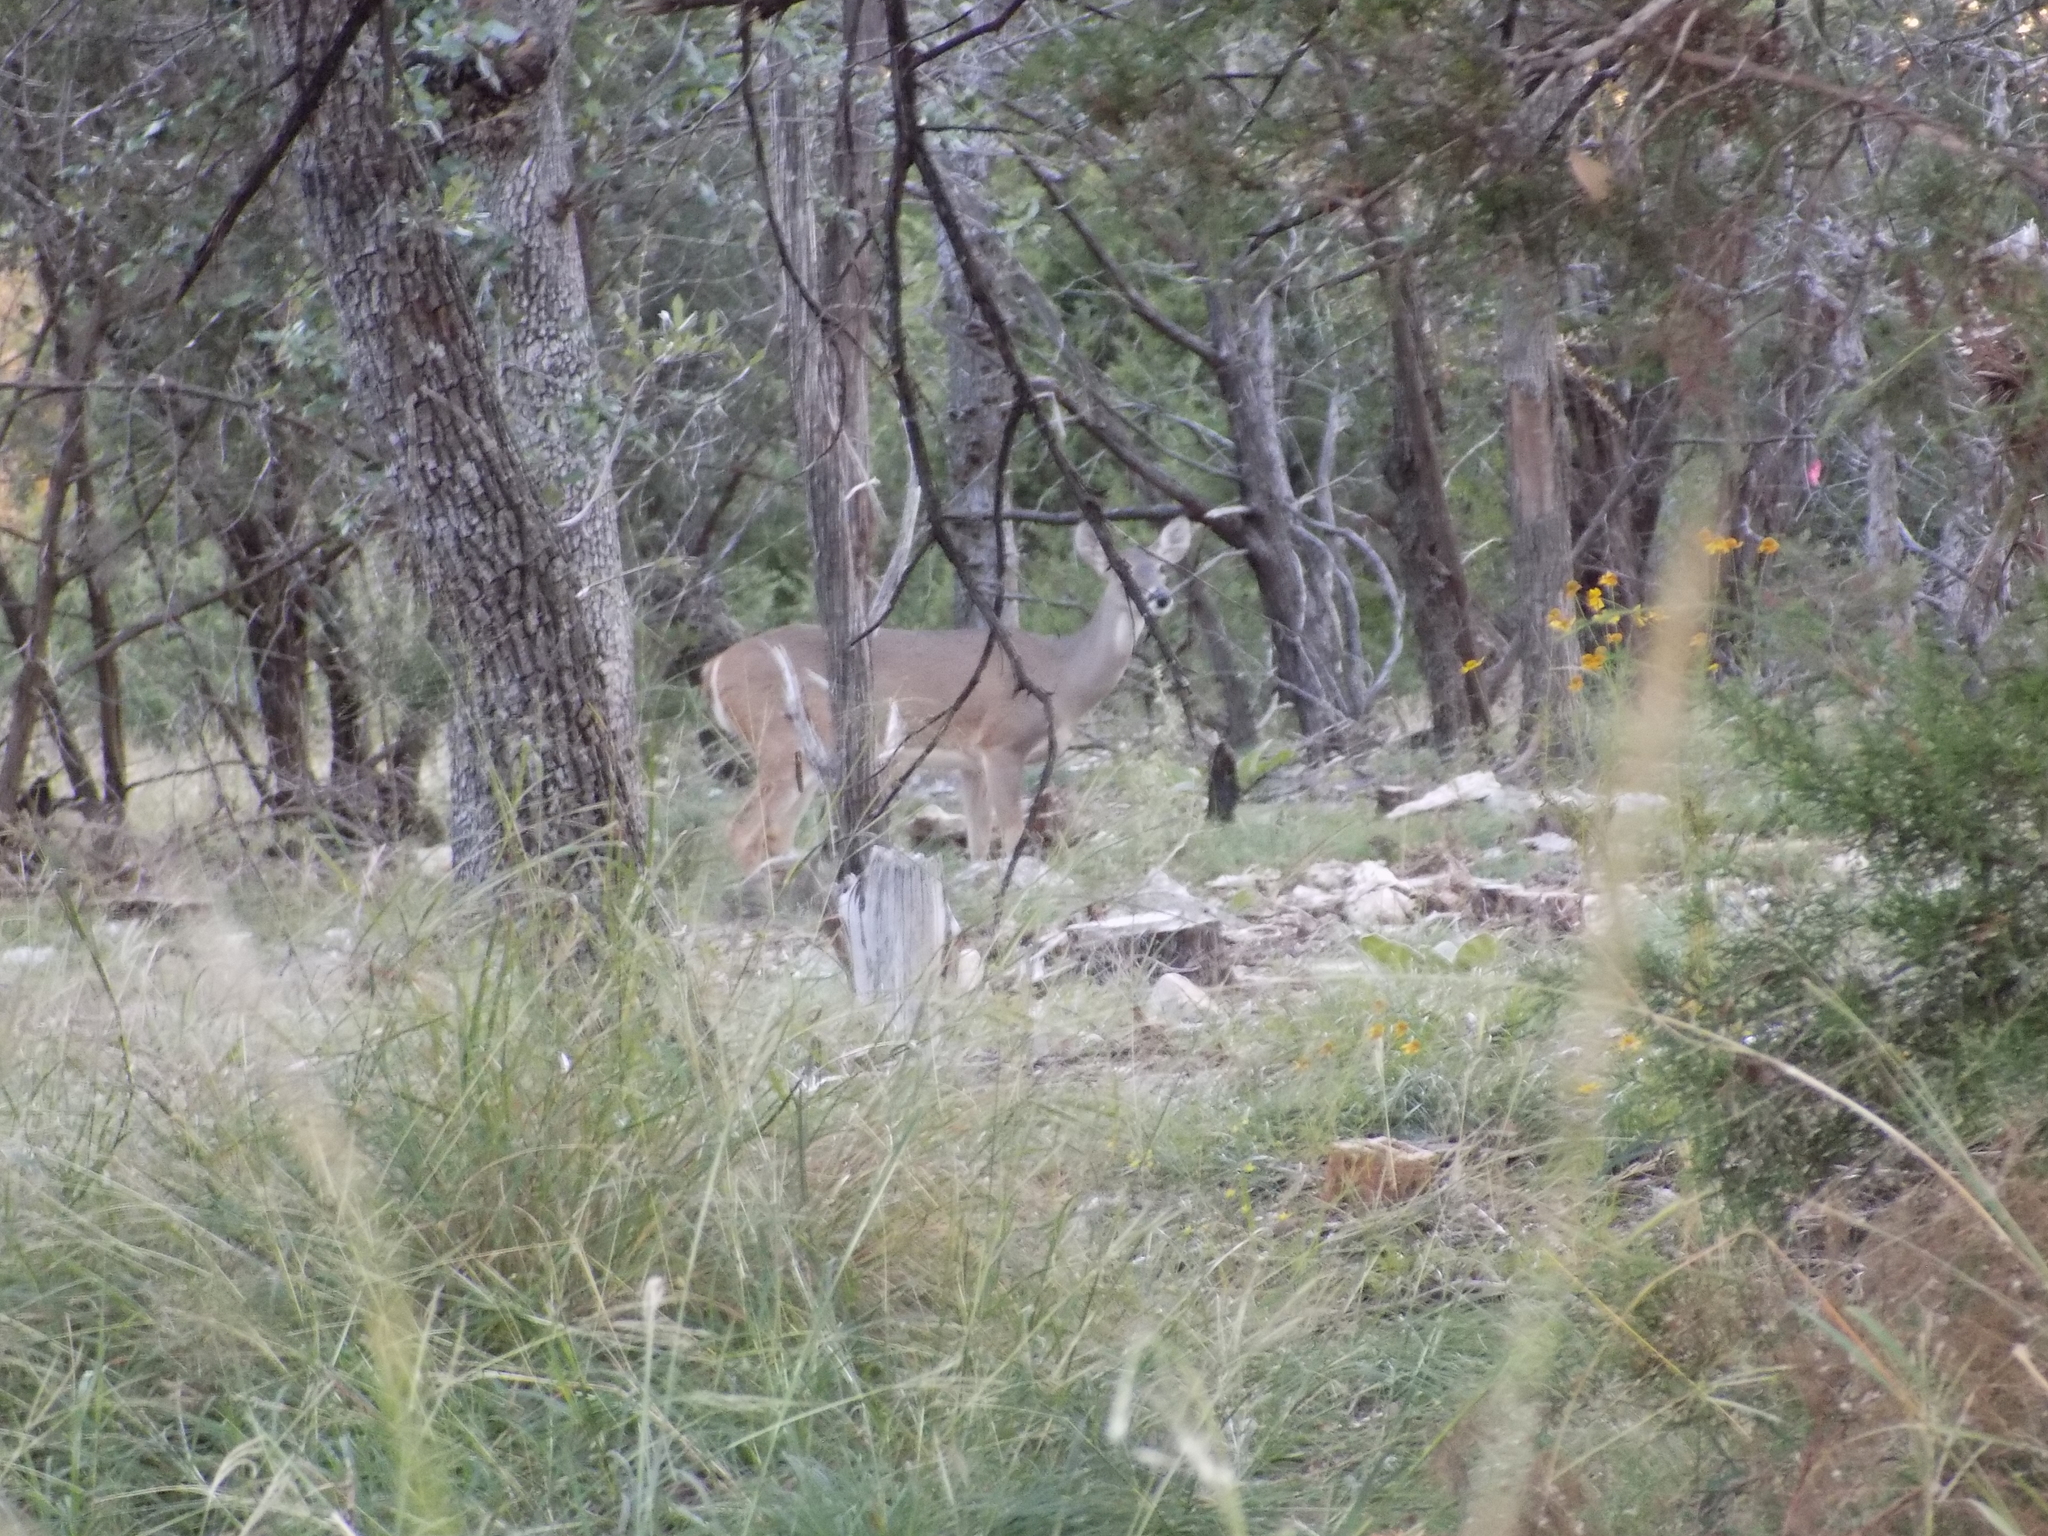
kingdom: Animalia
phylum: Chordata
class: Mammalia
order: Artiodactyla
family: Cervidae
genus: Odocoileus
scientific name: Odocoileus virginianus
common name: White-tailed deer
